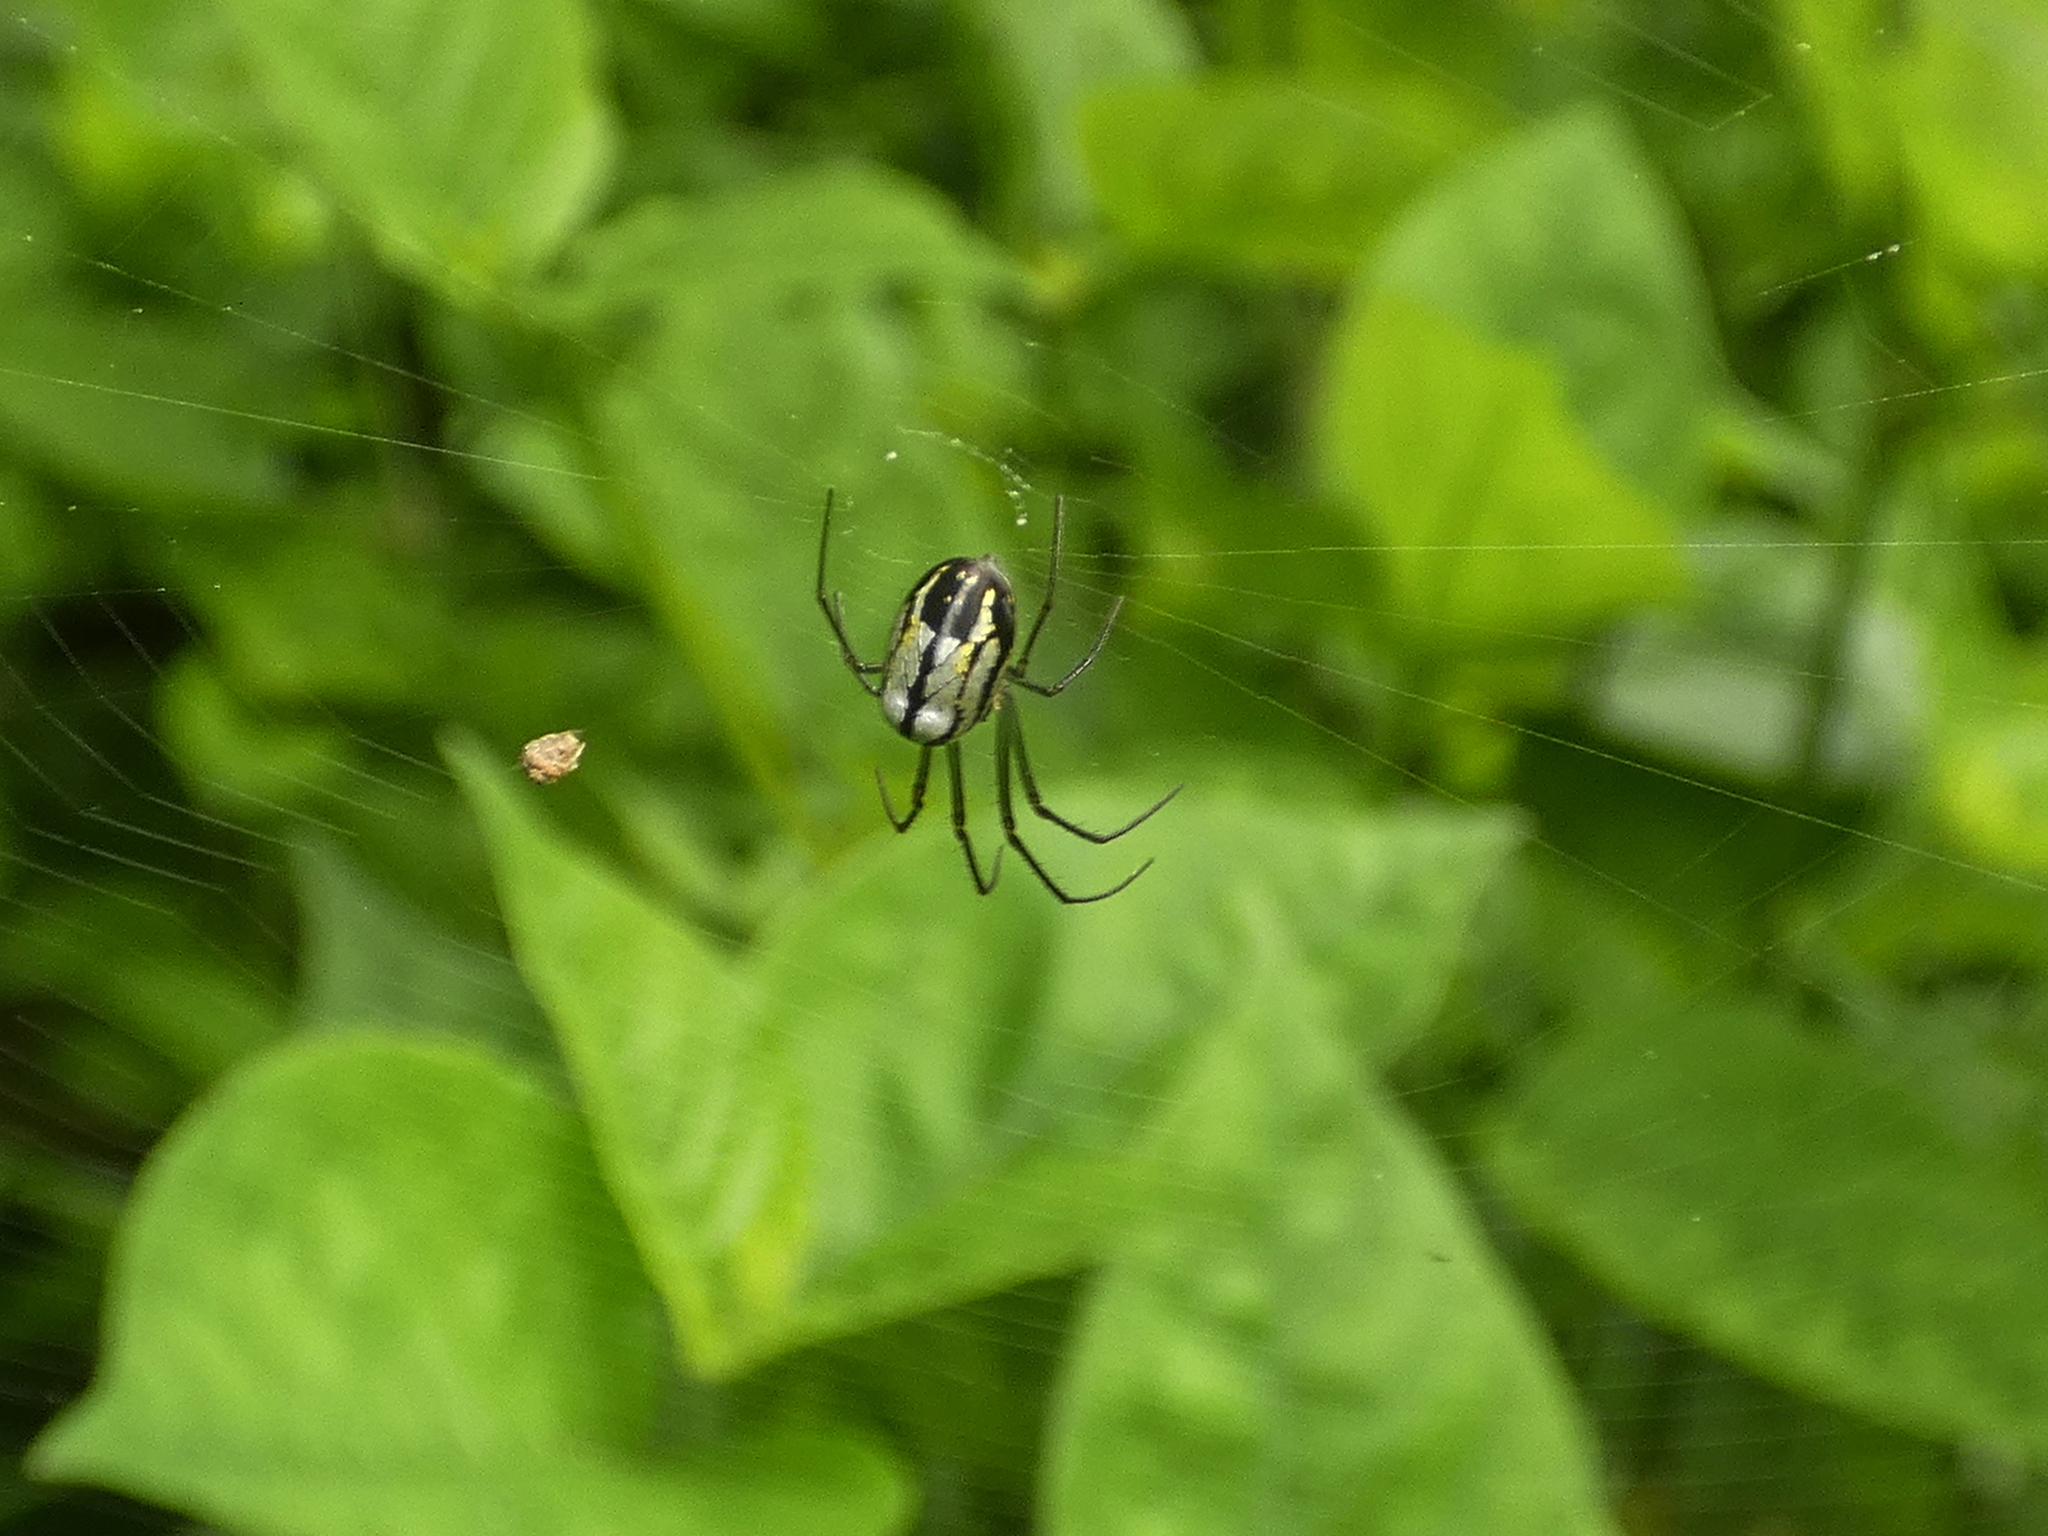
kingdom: Animalia
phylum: Arthropoda
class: Arachnida
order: Araneae
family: Tetragnathidae
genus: Leucauge
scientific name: Leucauge volupis
